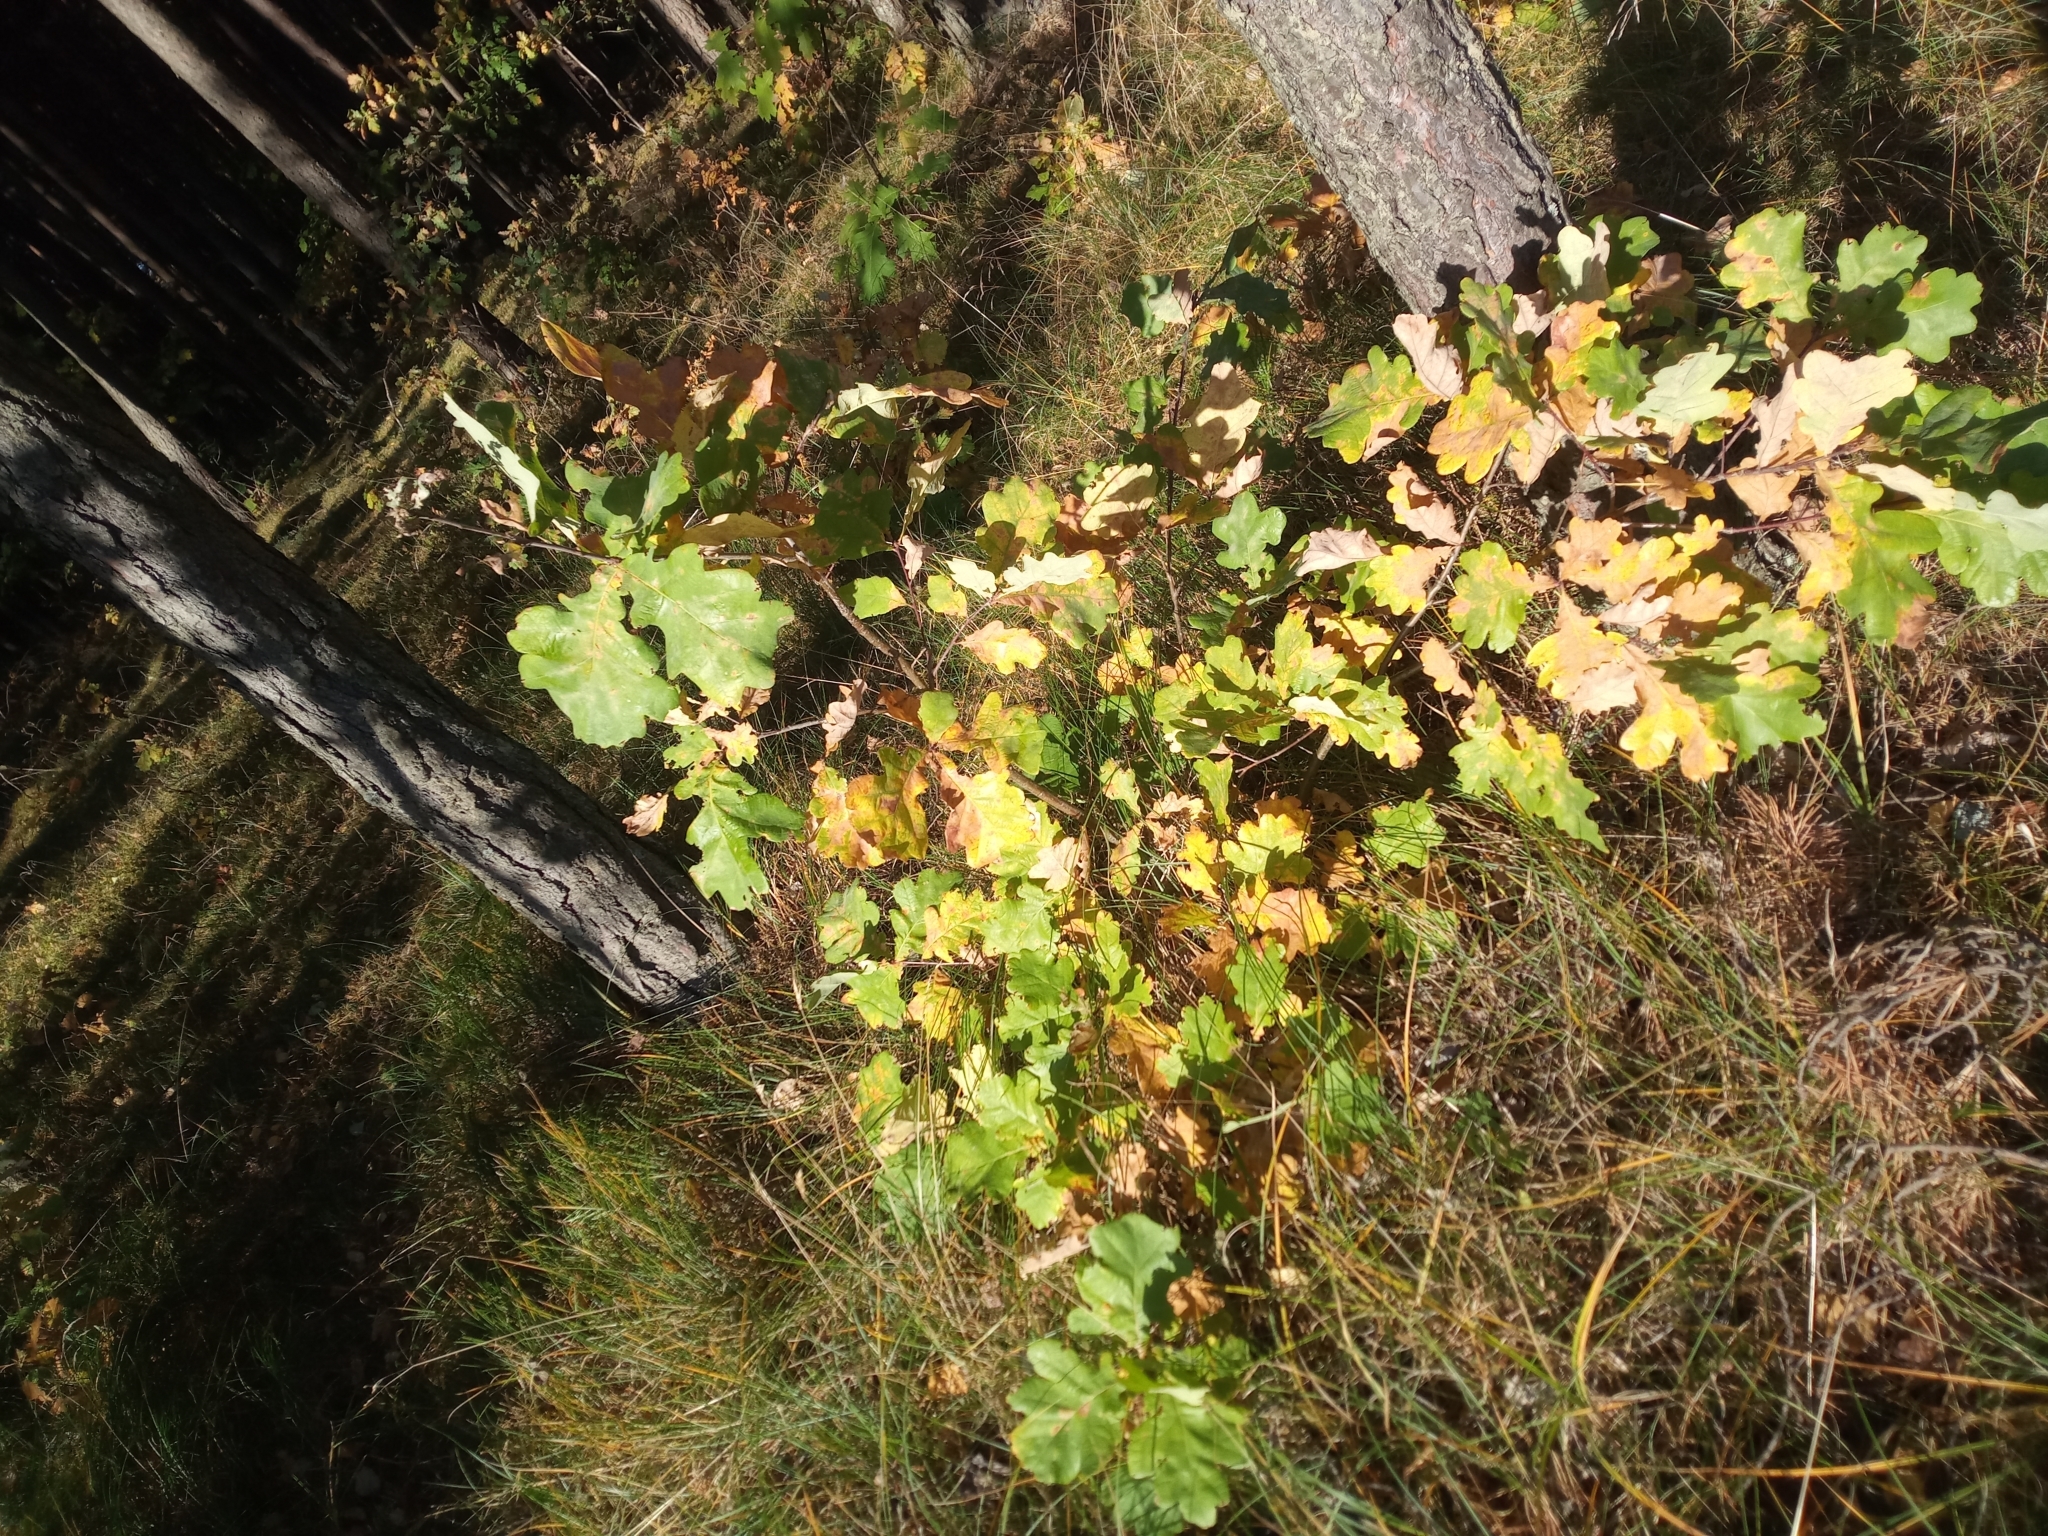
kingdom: Plantae
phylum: Tracheophyta
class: Magnoliopsida
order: Fagales
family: Fagaceae
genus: Quercus
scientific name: Quercus robur
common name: Pedunculate oak
